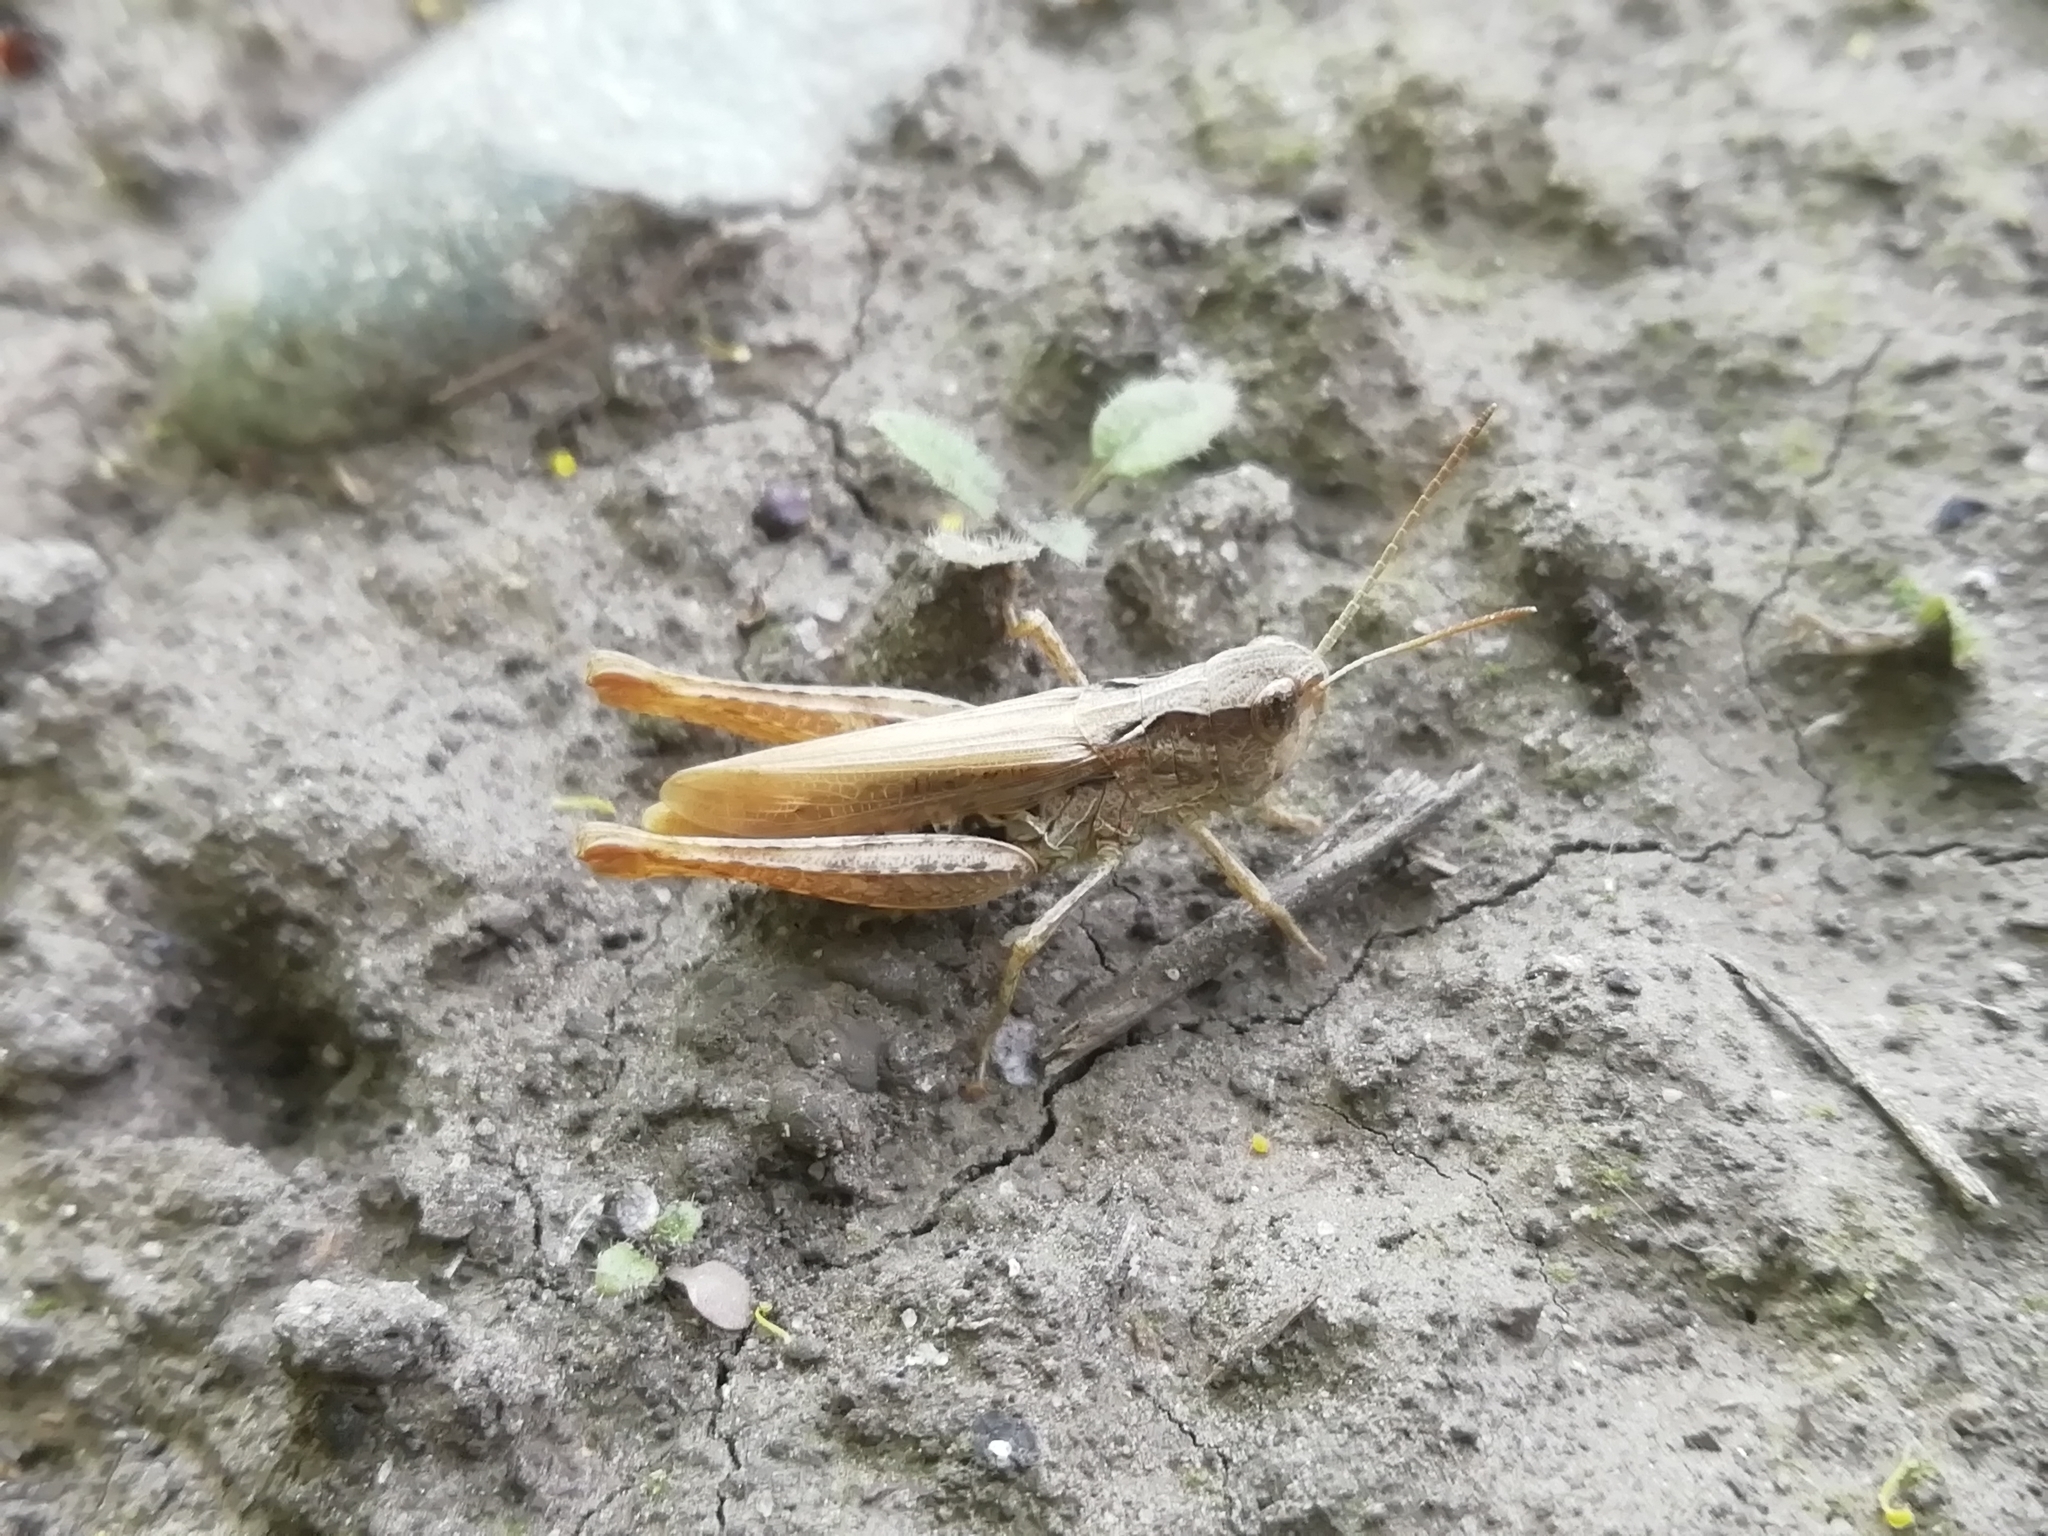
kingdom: Animalia
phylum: Arthropoda
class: Insecta
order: Orthoptera
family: Acrididae
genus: Chorthippus
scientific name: Chorthippus apricarius
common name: Upland field grasshopper
